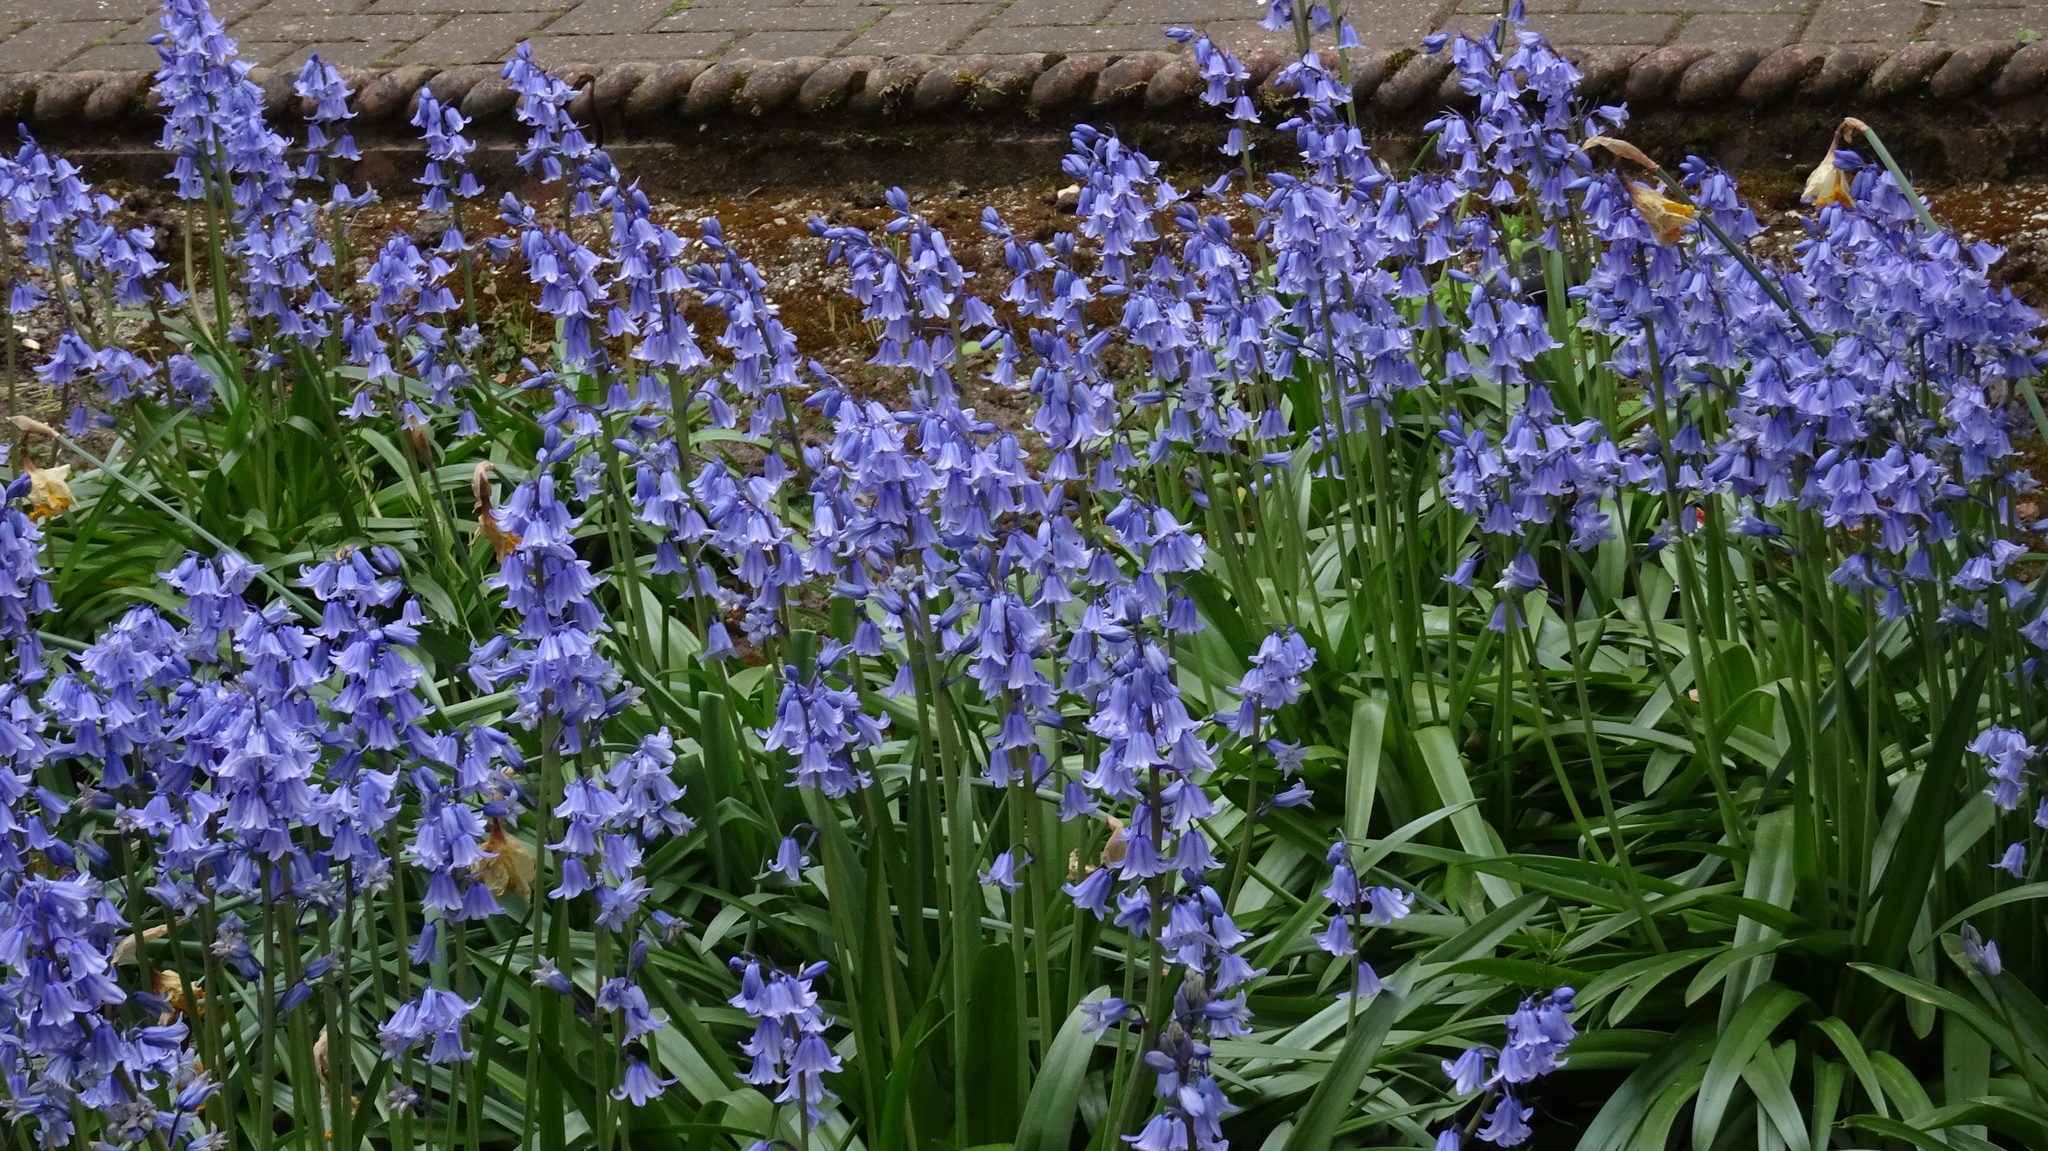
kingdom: Plantae
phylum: Tracheophyta
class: Liliopsida
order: Asparagales
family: Asparagaceae
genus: Hyacinthoides
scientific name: Hyacinthoides massartiana
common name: Hyacinthoides
